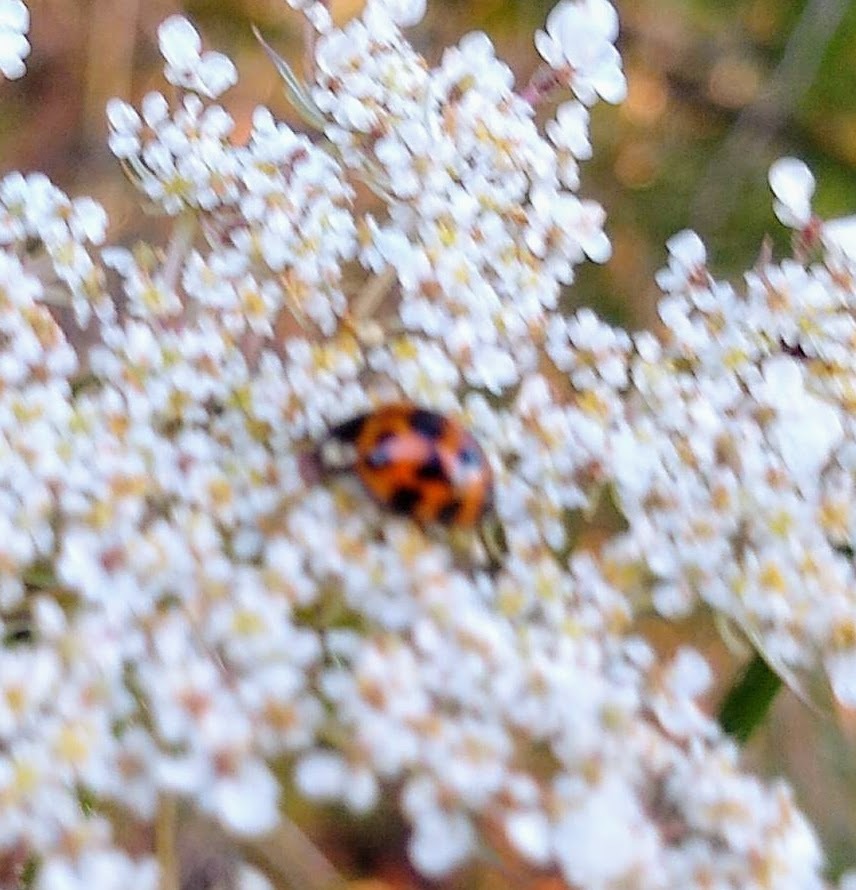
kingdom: Animalia
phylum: Arthropoda
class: Insecta
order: Coleoptera
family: Coccinellidae
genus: Harmonia
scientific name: Harmonia axyridis
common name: Harlequin ladybird
